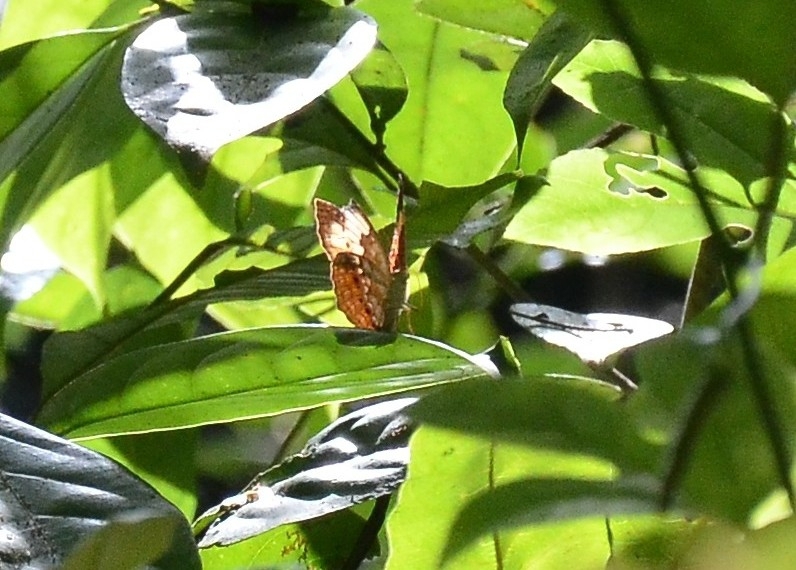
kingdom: Animalia
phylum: Arthropoda
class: Insecta
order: Lepidoptera
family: Nymphalidae
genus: Cupha
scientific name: Cupha erymanthis
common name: Rustic
